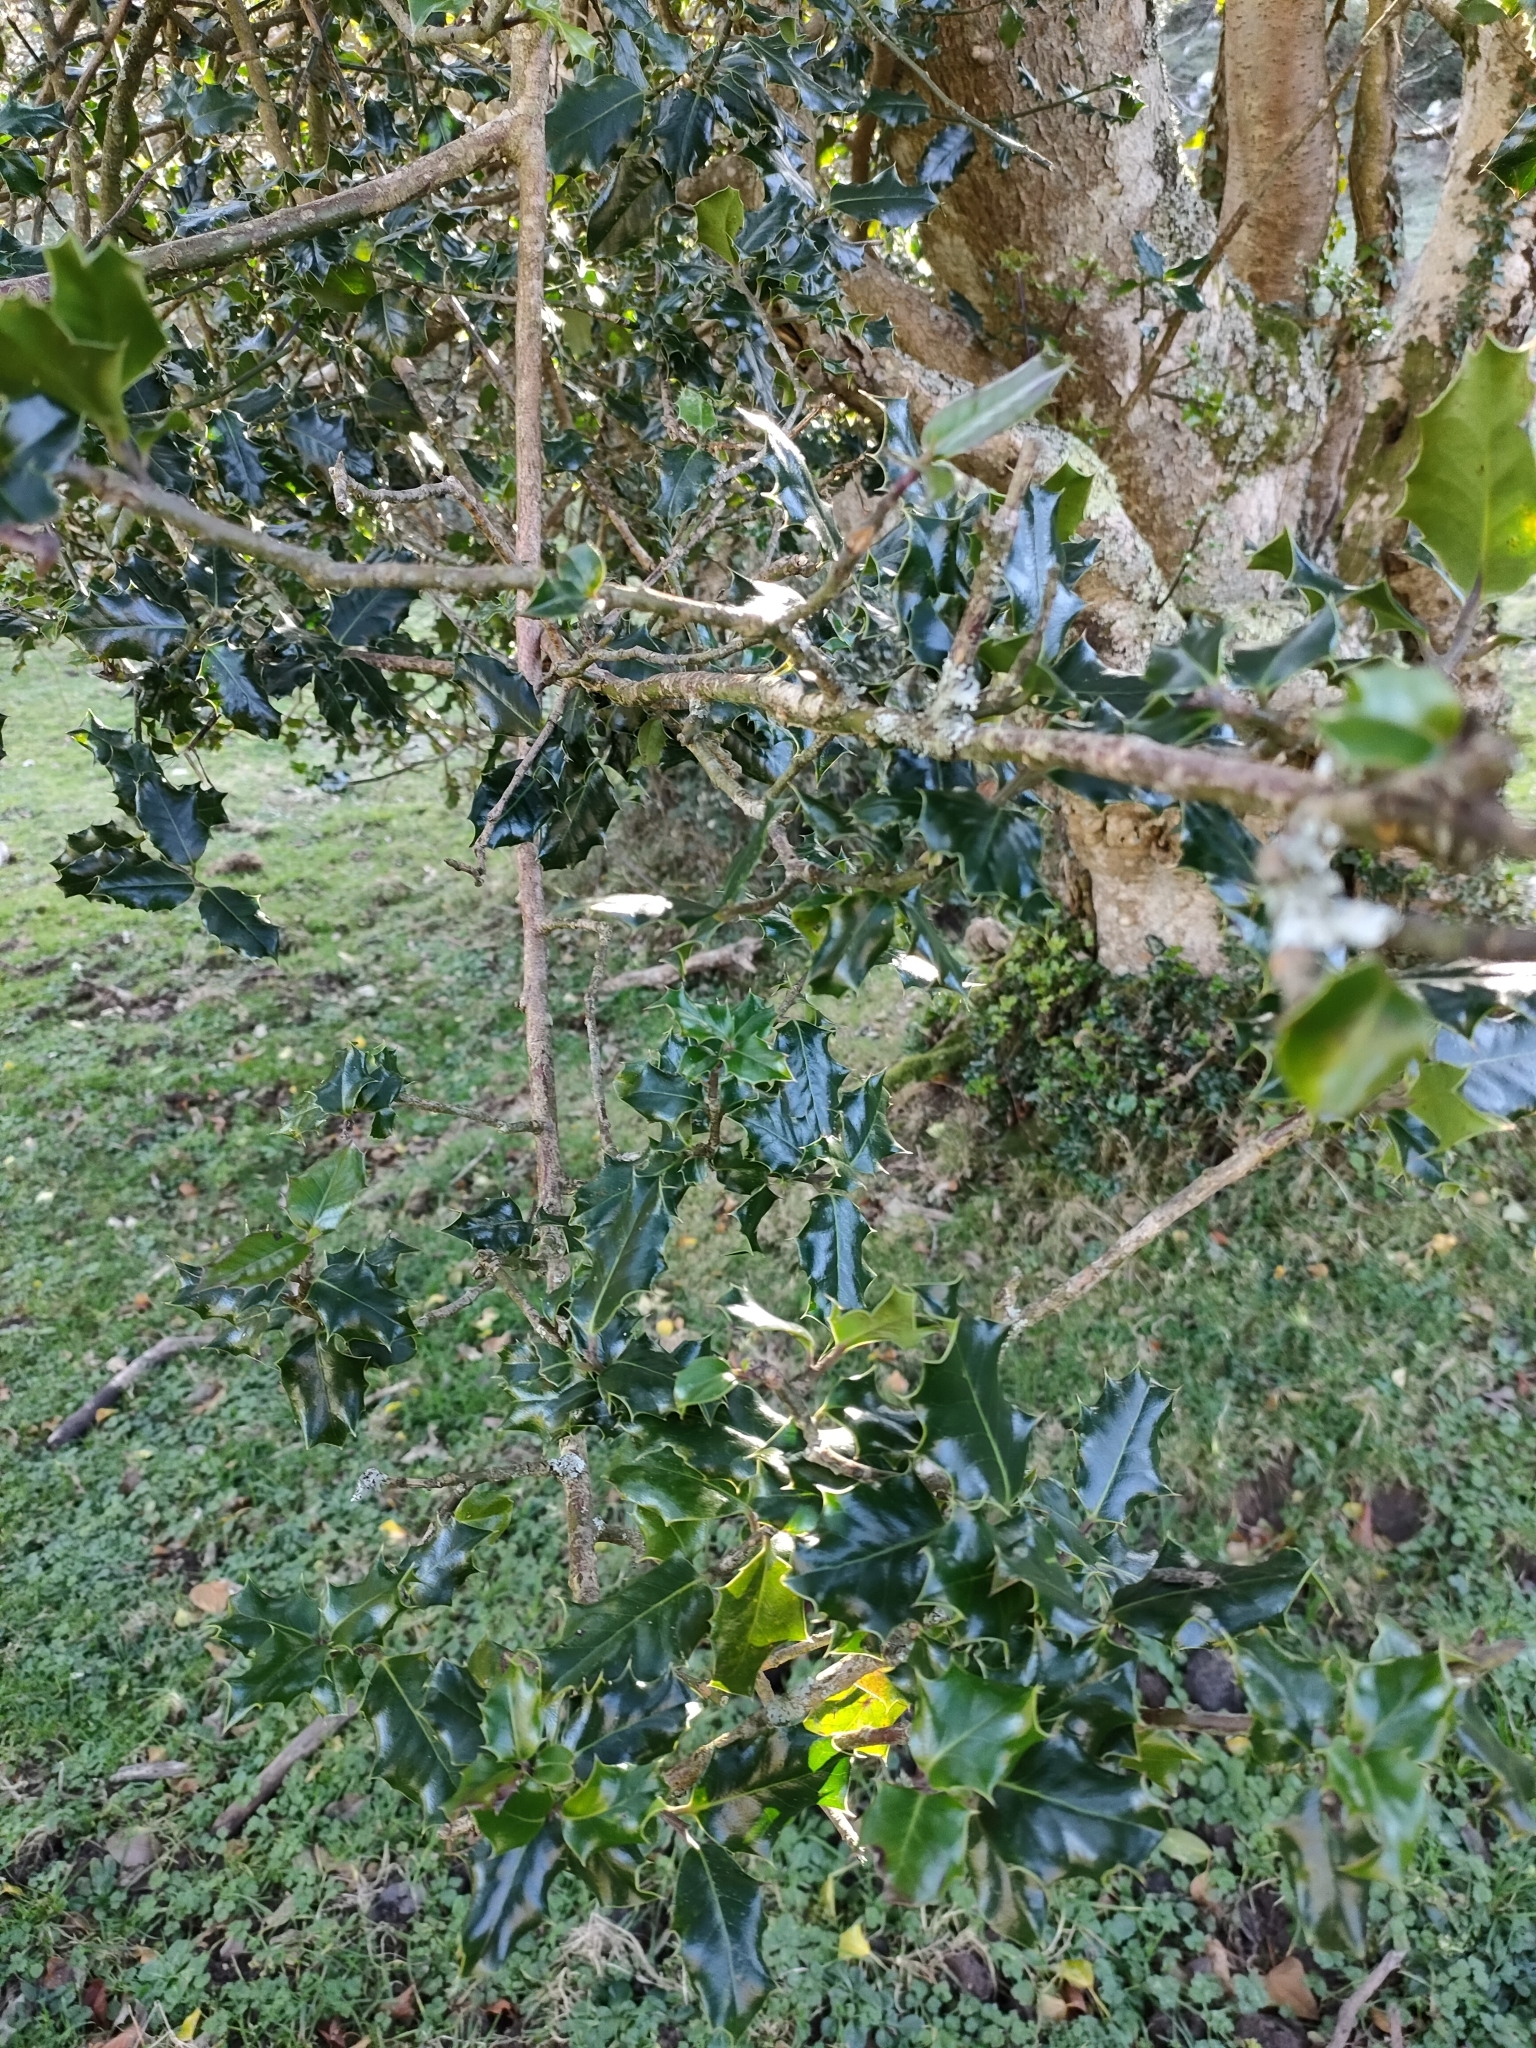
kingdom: Plantae
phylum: Tracheophyta
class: Magnoliopsida
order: Aquifoliales
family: Aquifoliaceae
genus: Ilex
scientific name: Ilex aquifolium
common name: English holly
